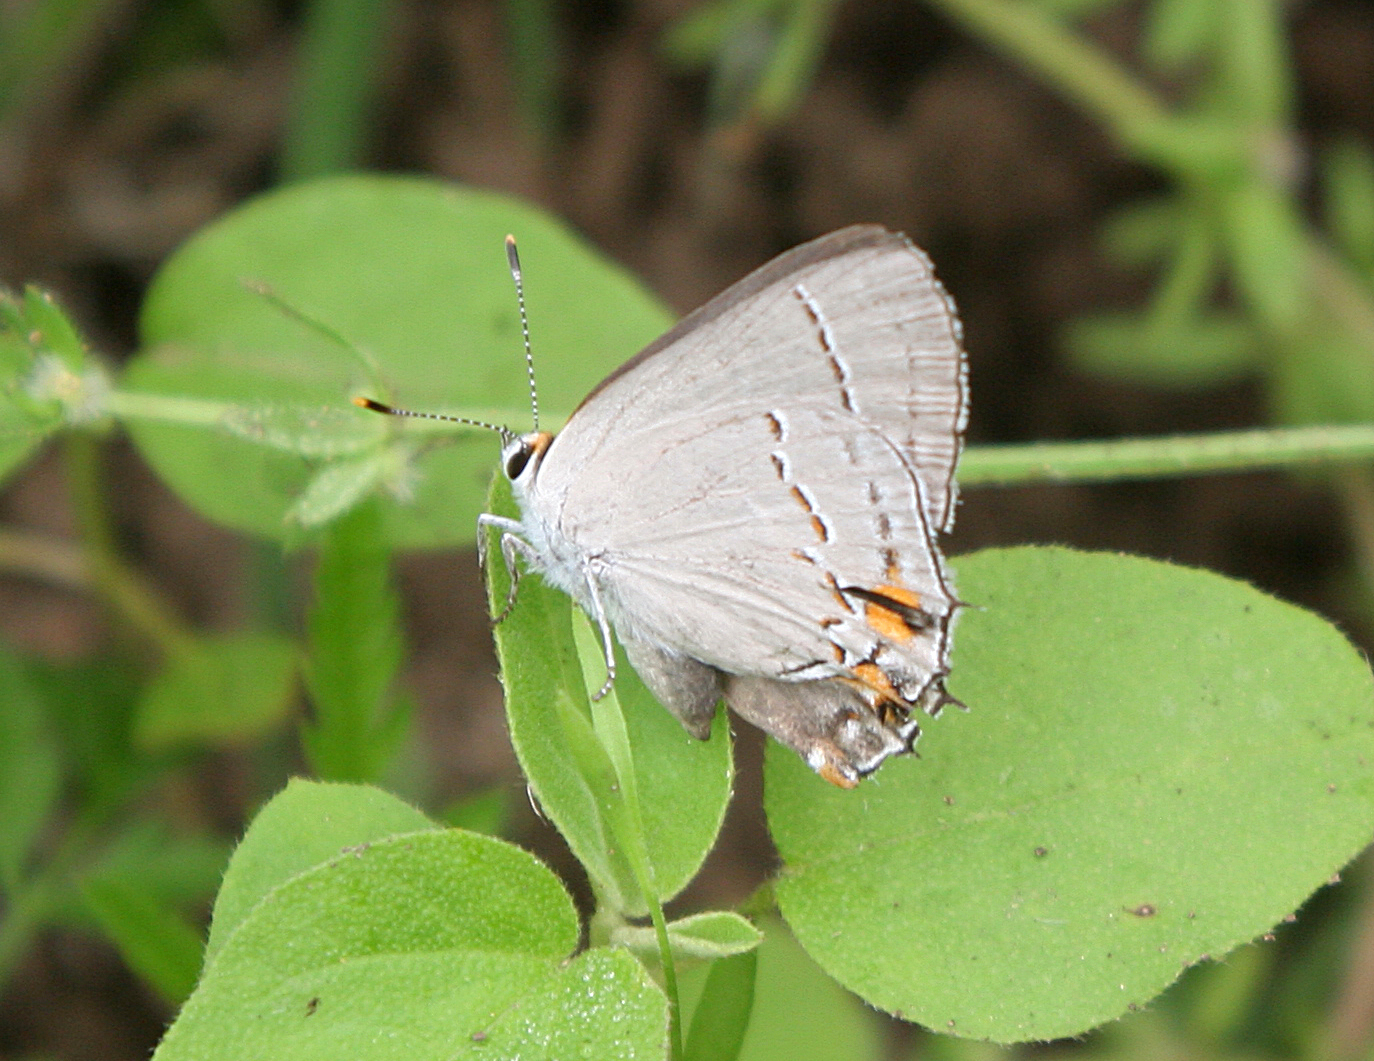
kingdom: Animalia
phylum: Arthropoda
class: Insecta
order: Lepidoptera
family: Lycaenidae
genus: Strymon
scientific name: Strymon melinus
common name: Gray hairstreak
